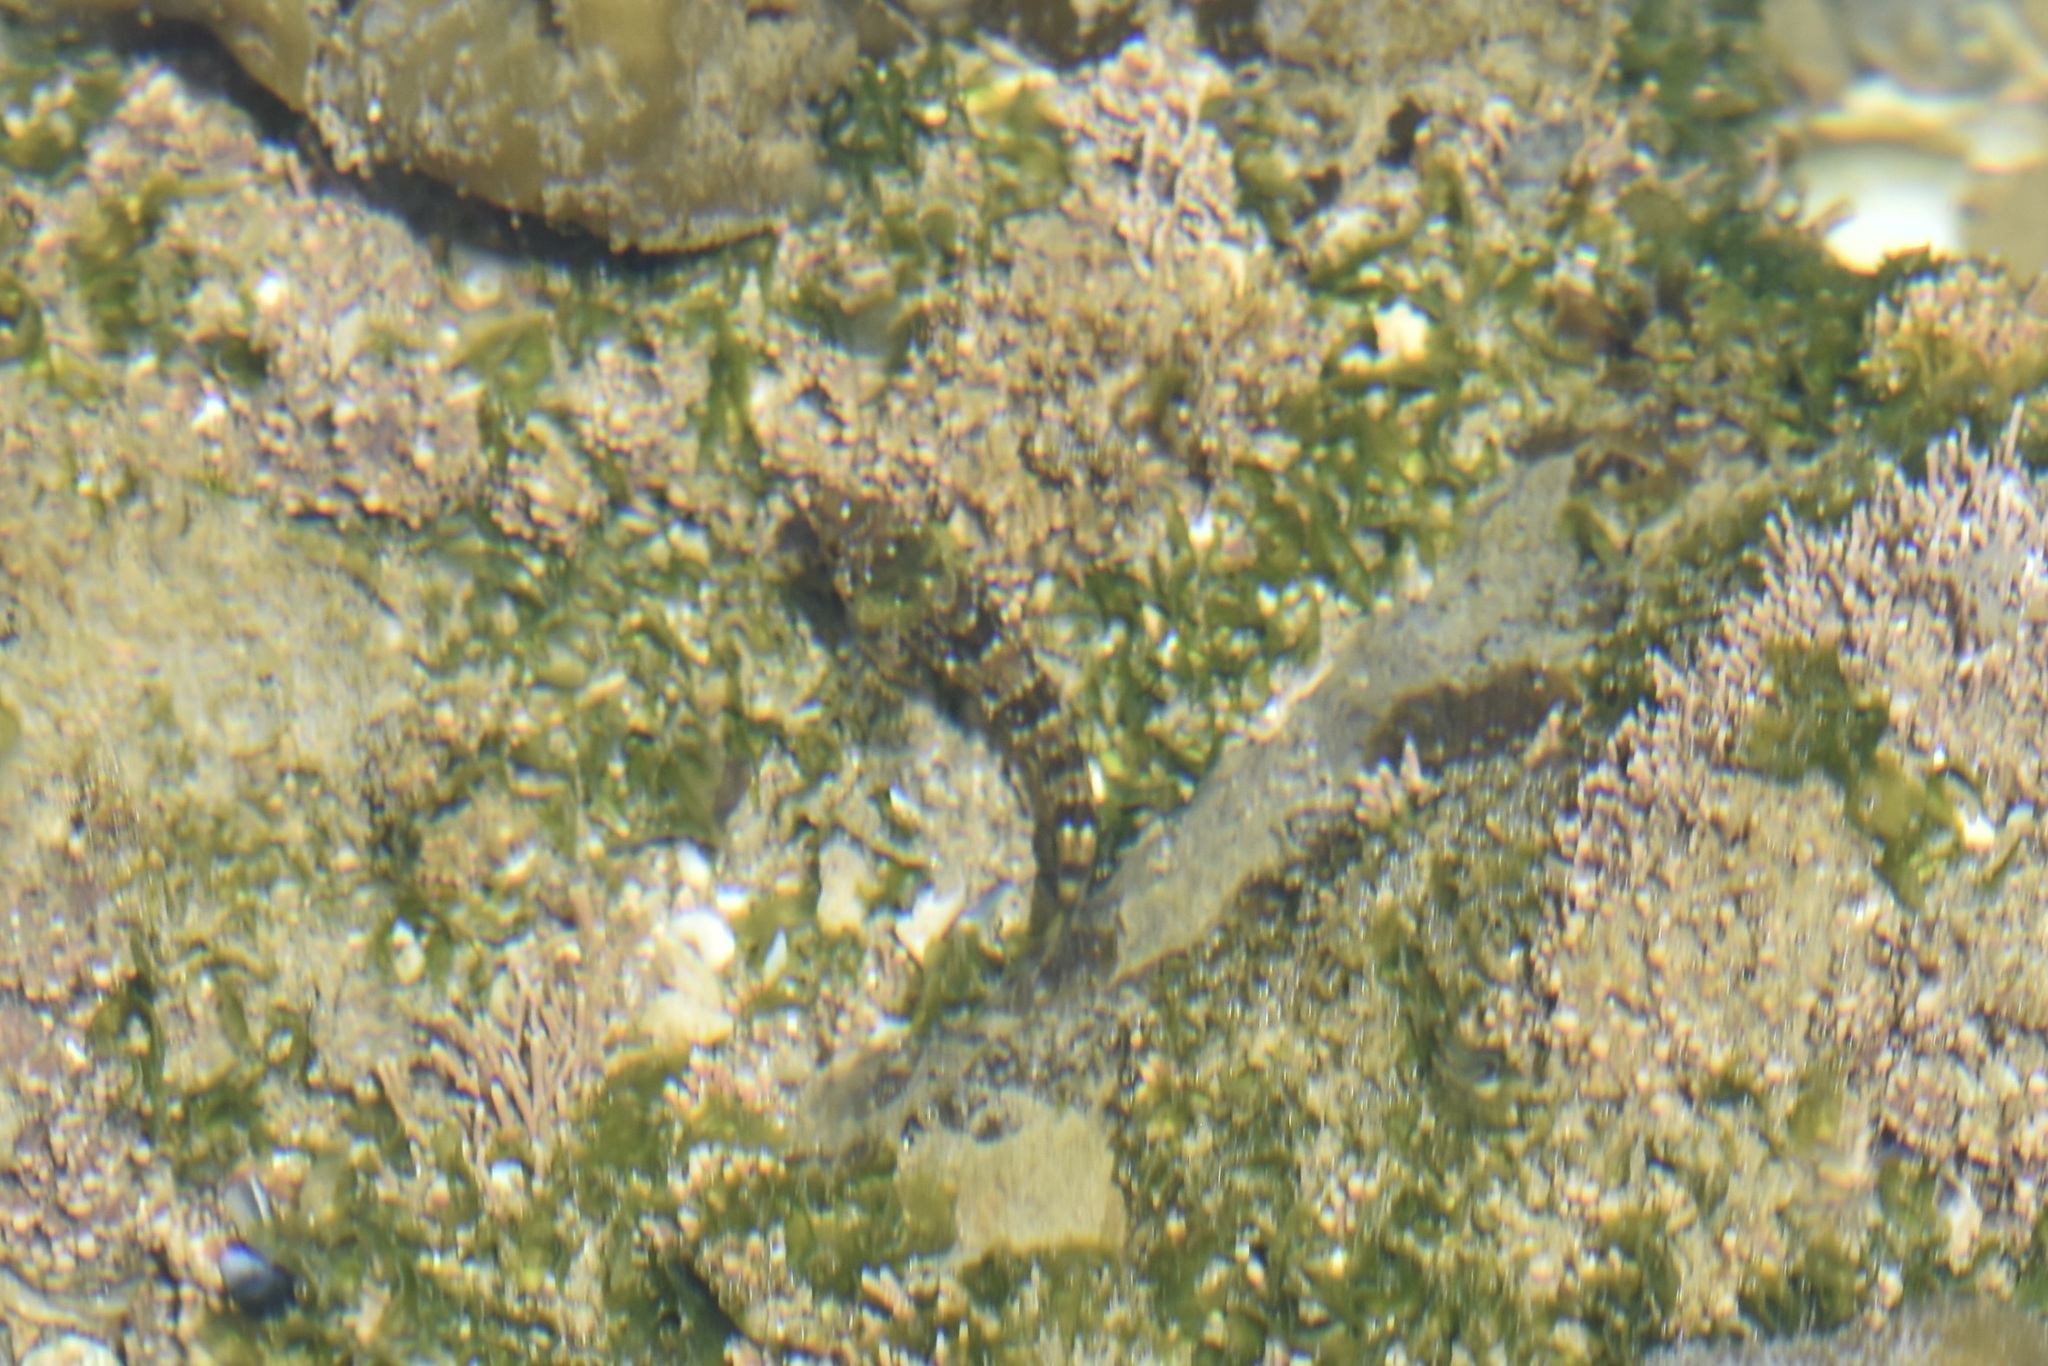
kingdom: Animalia
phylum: Chordata
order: Scorpaeniformes
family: Cottidae
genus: Clinocottus
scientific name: Clinocottus analis
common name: Woolly sculpin
